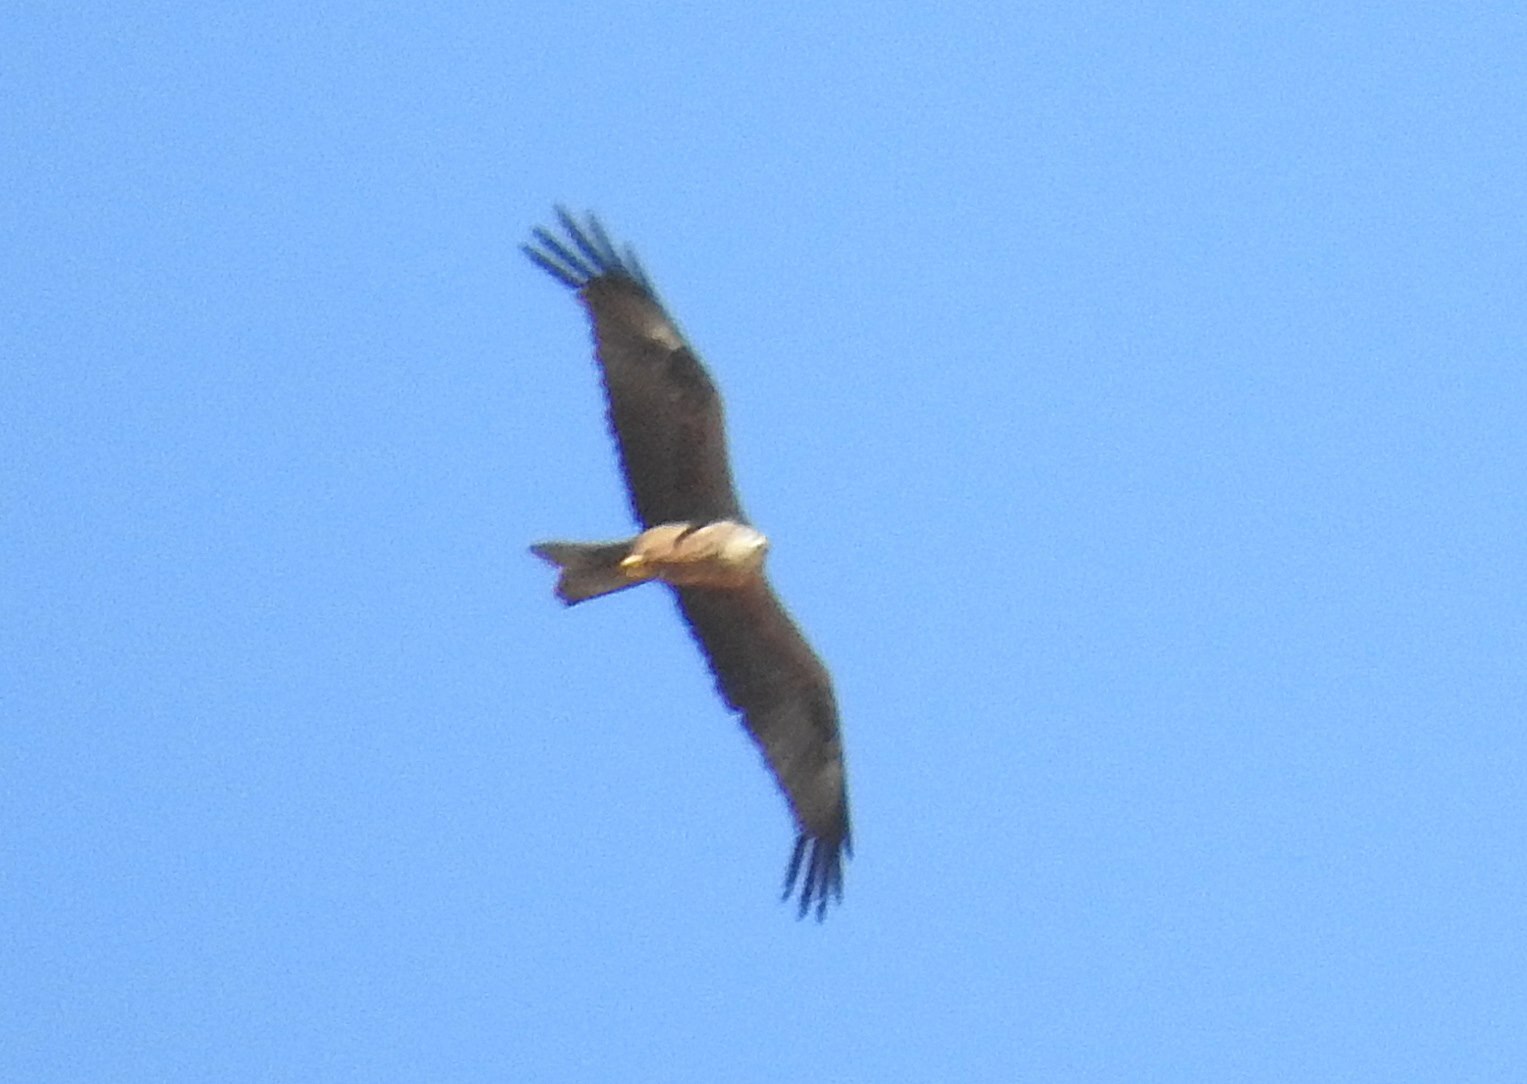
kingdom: Animalia
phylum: Chordata
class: Aves
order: Accipitriformes
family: Accipitridae
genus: Milvus
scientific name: Milvus milvus
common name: Red kite
